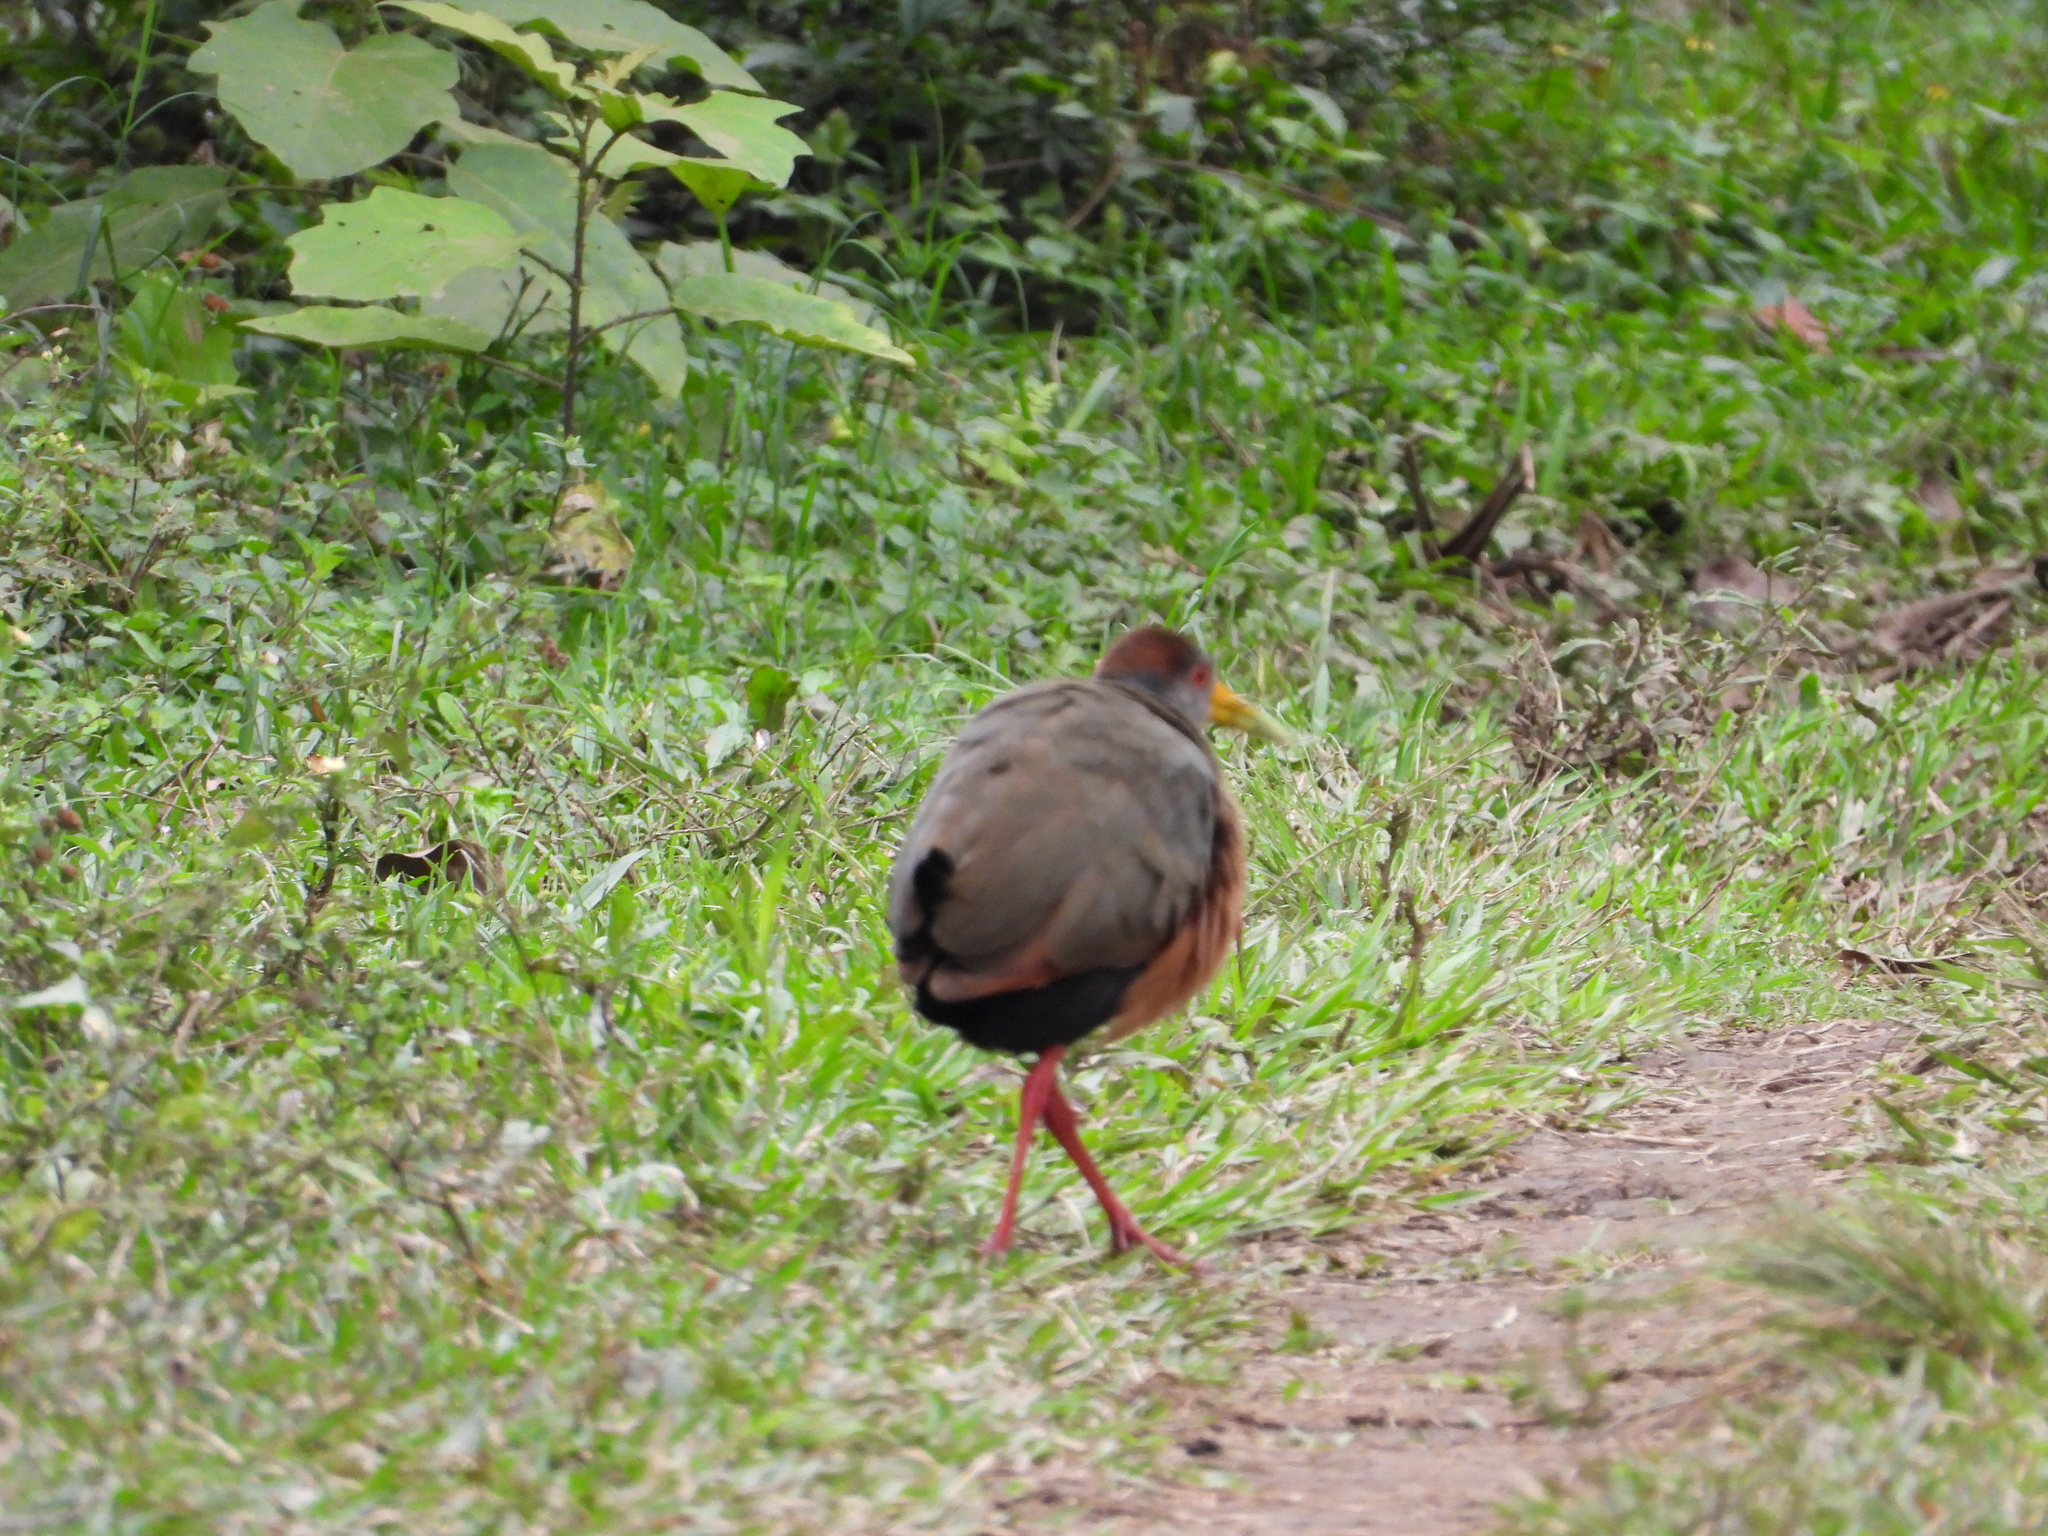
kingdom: Animalia
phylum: Chordata
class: Aves
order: Gruiformes
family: Rallidae
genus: Aramides
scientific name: Aramides albiventris
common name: Russet-naped wood-rail
